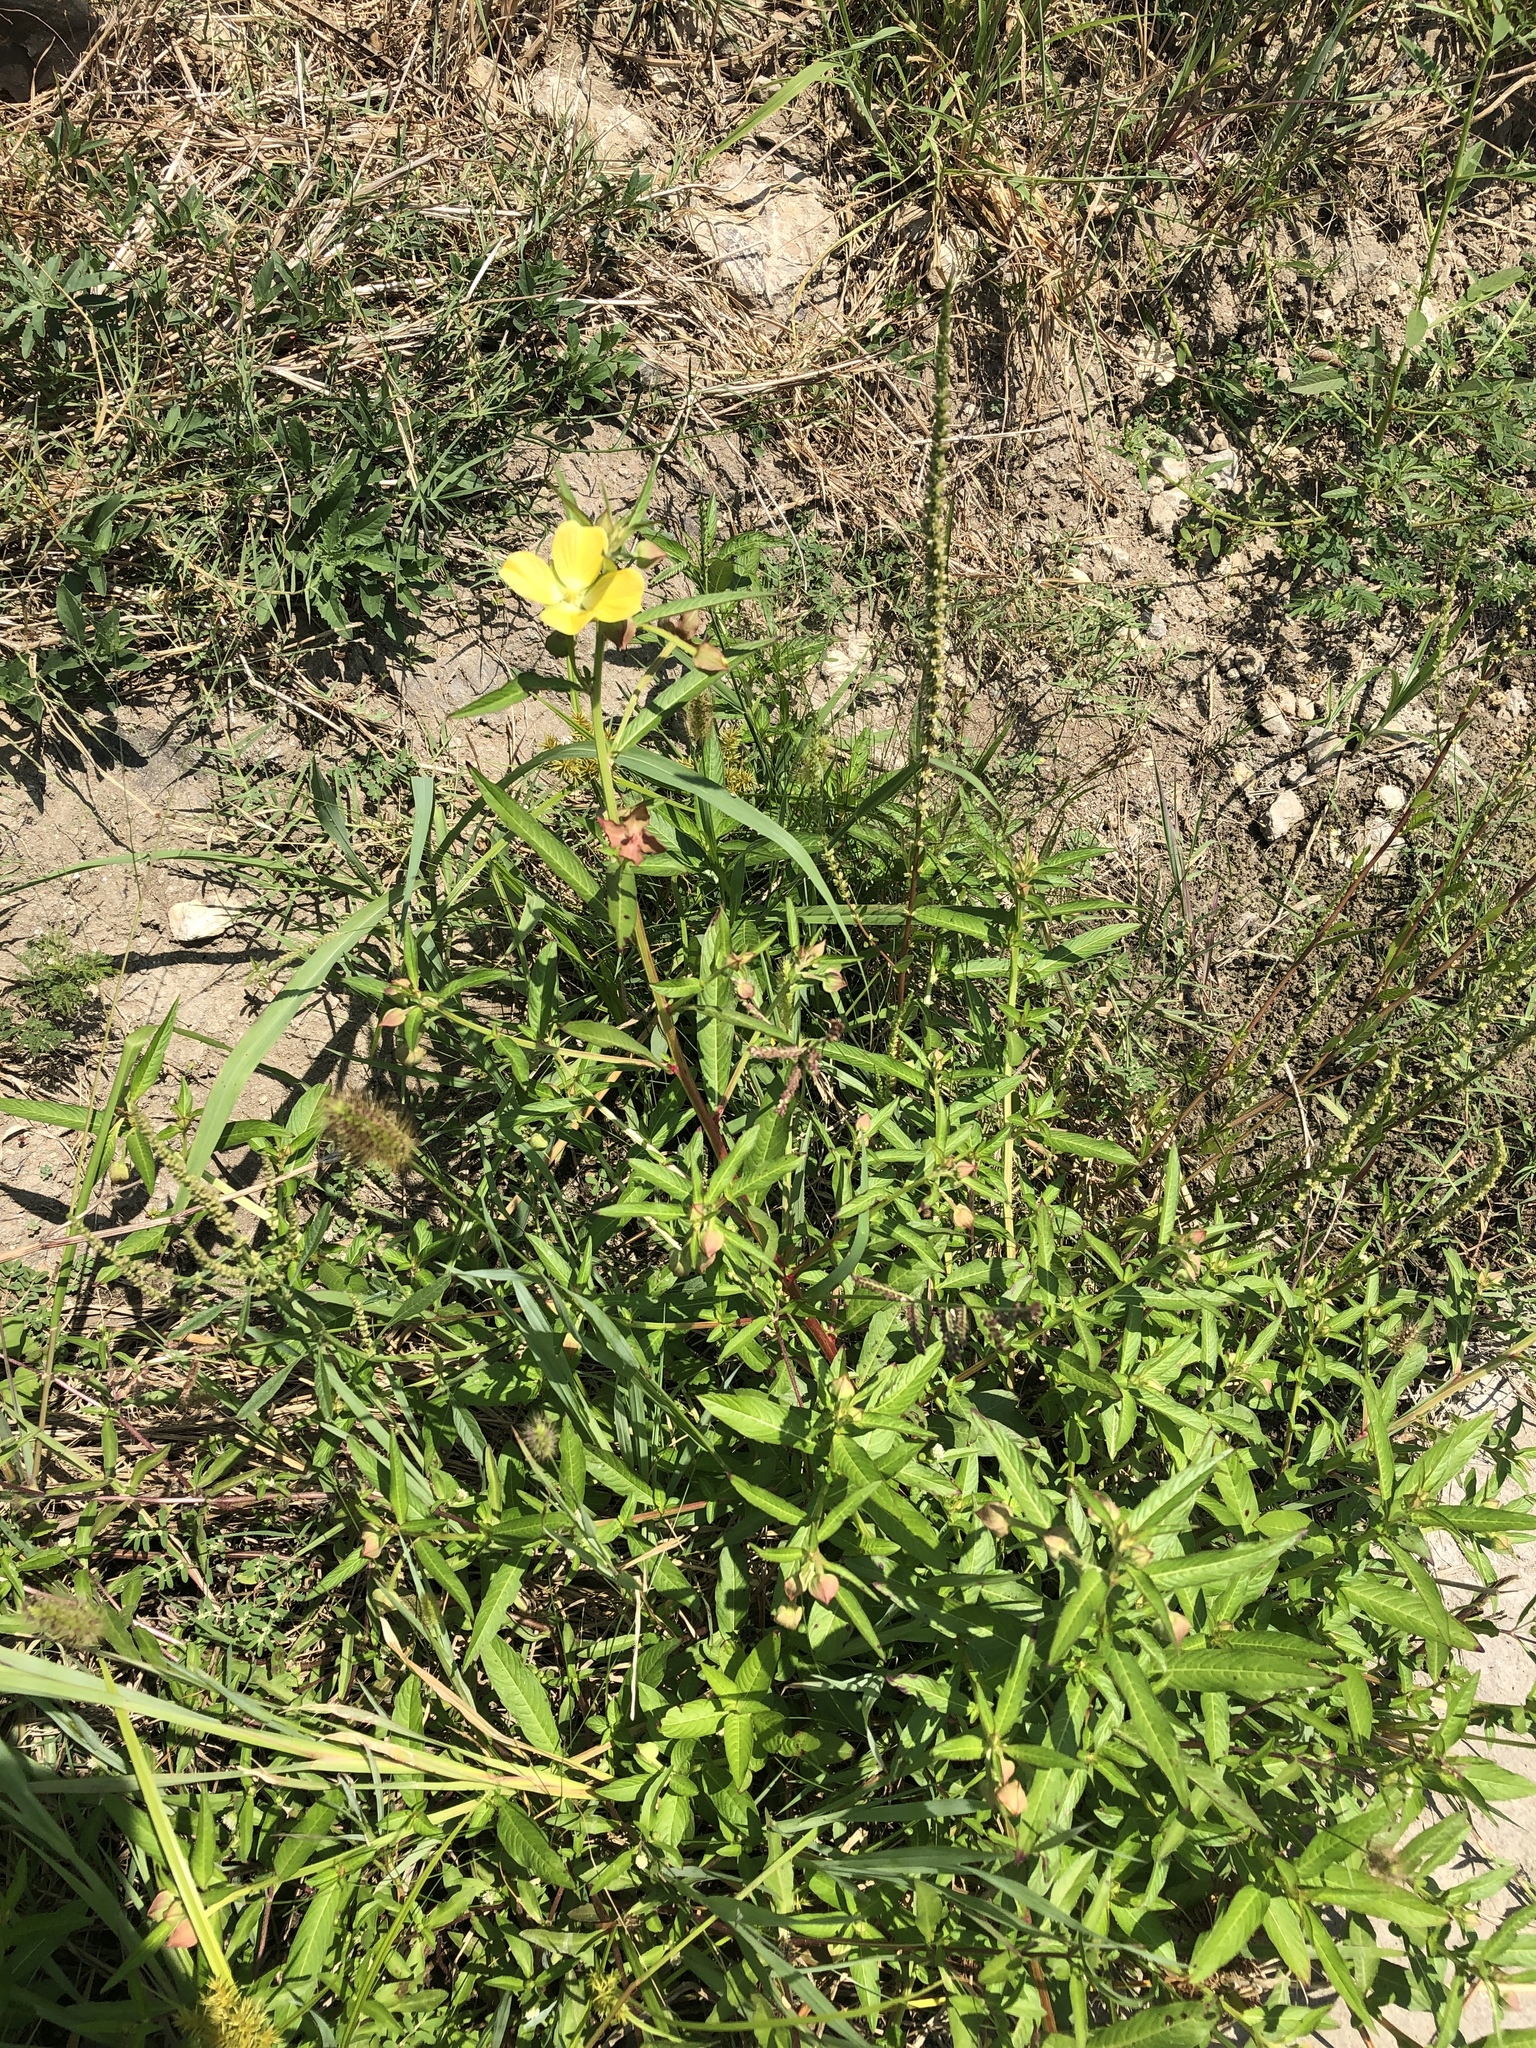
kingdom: Plantae
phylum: Tracheophyta
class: Magnoliopsida
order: Myrtales
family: Onagraceae
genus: Ludwigia
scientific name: Ludwigia octovalvis
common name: Water-primrose
